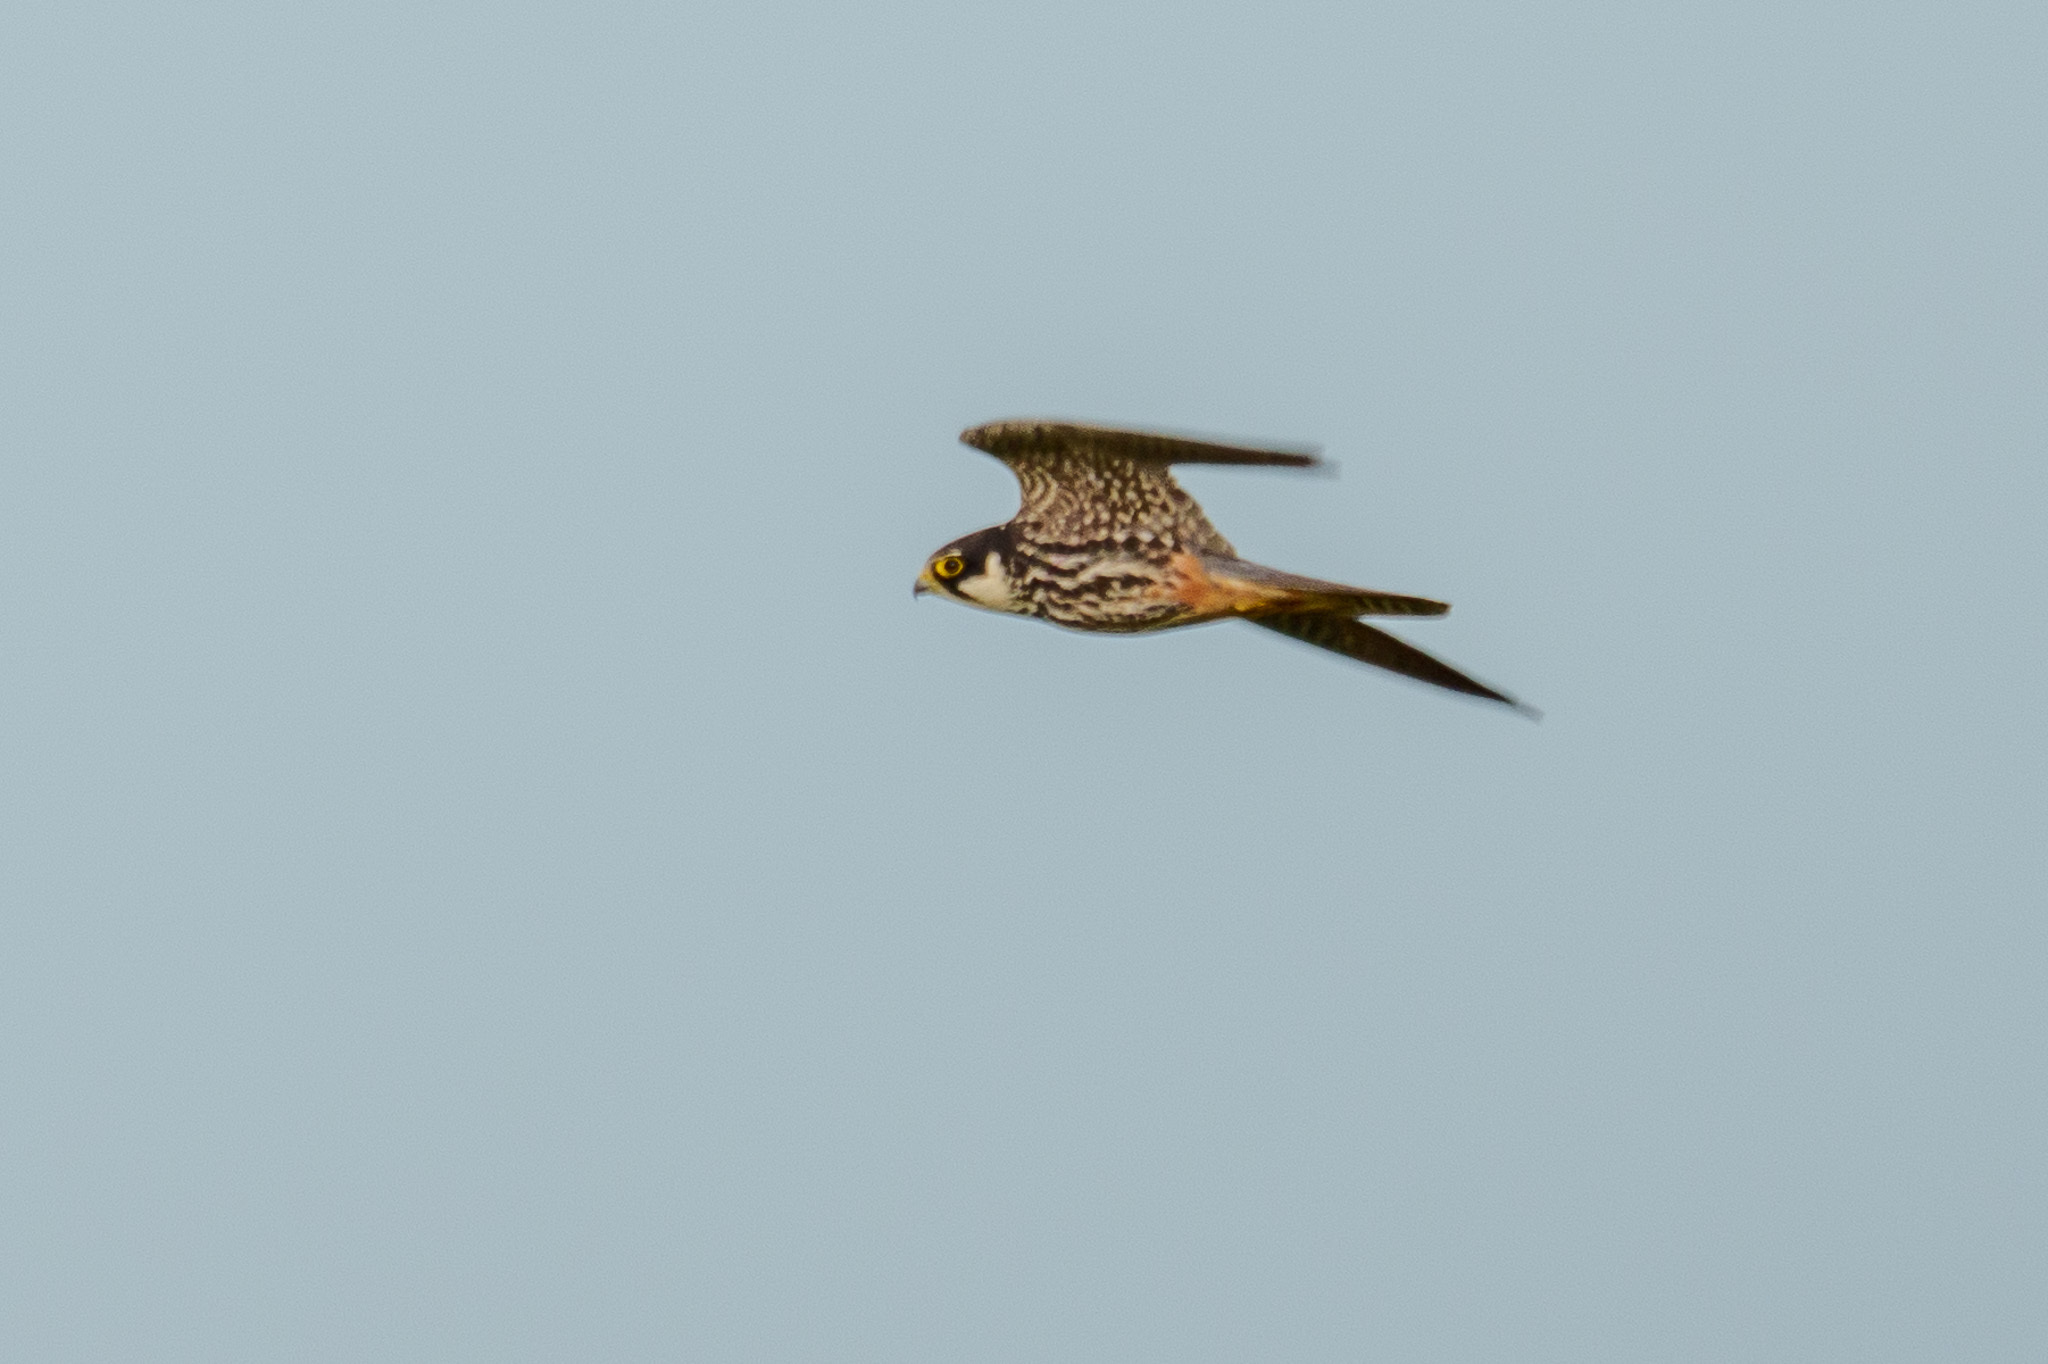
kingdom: Animalia
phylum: Chordata
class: Aves
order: Falconiformes
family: Falconidae
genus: Falco
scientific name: Falco subbuteo
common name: Eurasian hobby
